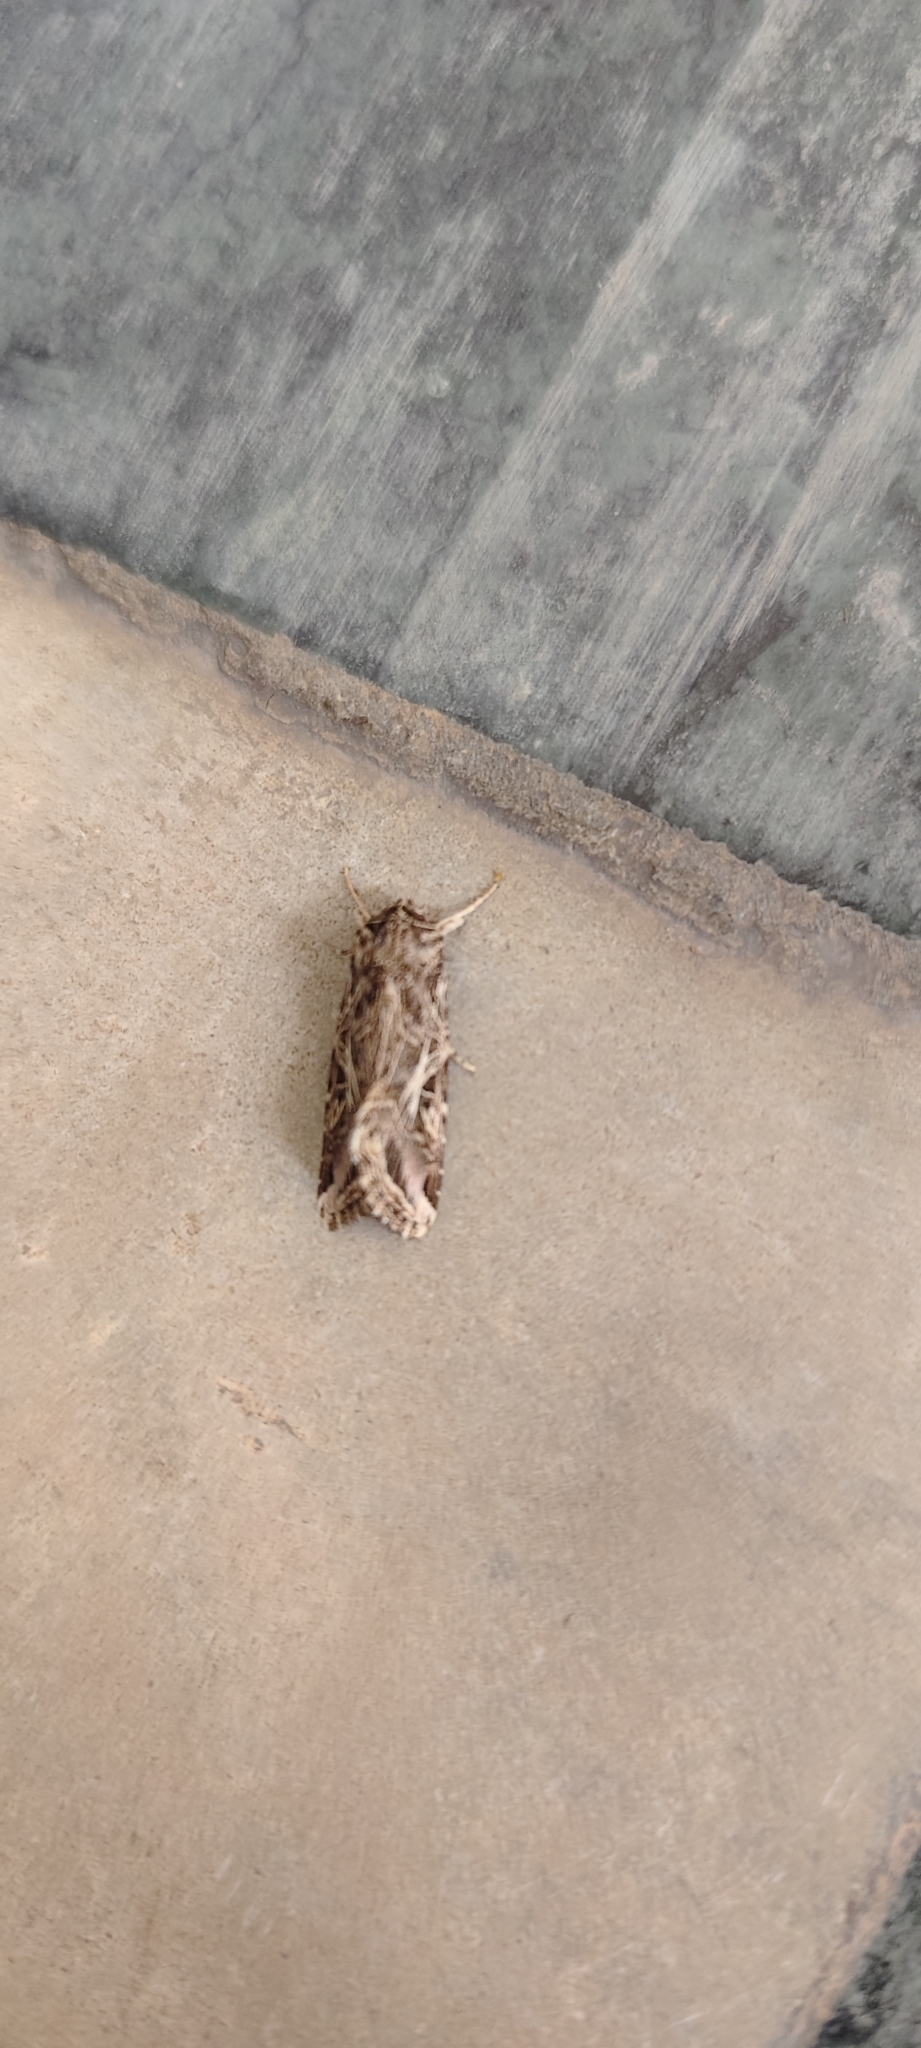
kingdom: Animalia
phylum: Arthropoda
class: Insecta
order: Lepidoptera
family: Noctuidae
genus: Spodoptera
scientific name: Spodoptera litura
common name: Asian cotton leafworm
